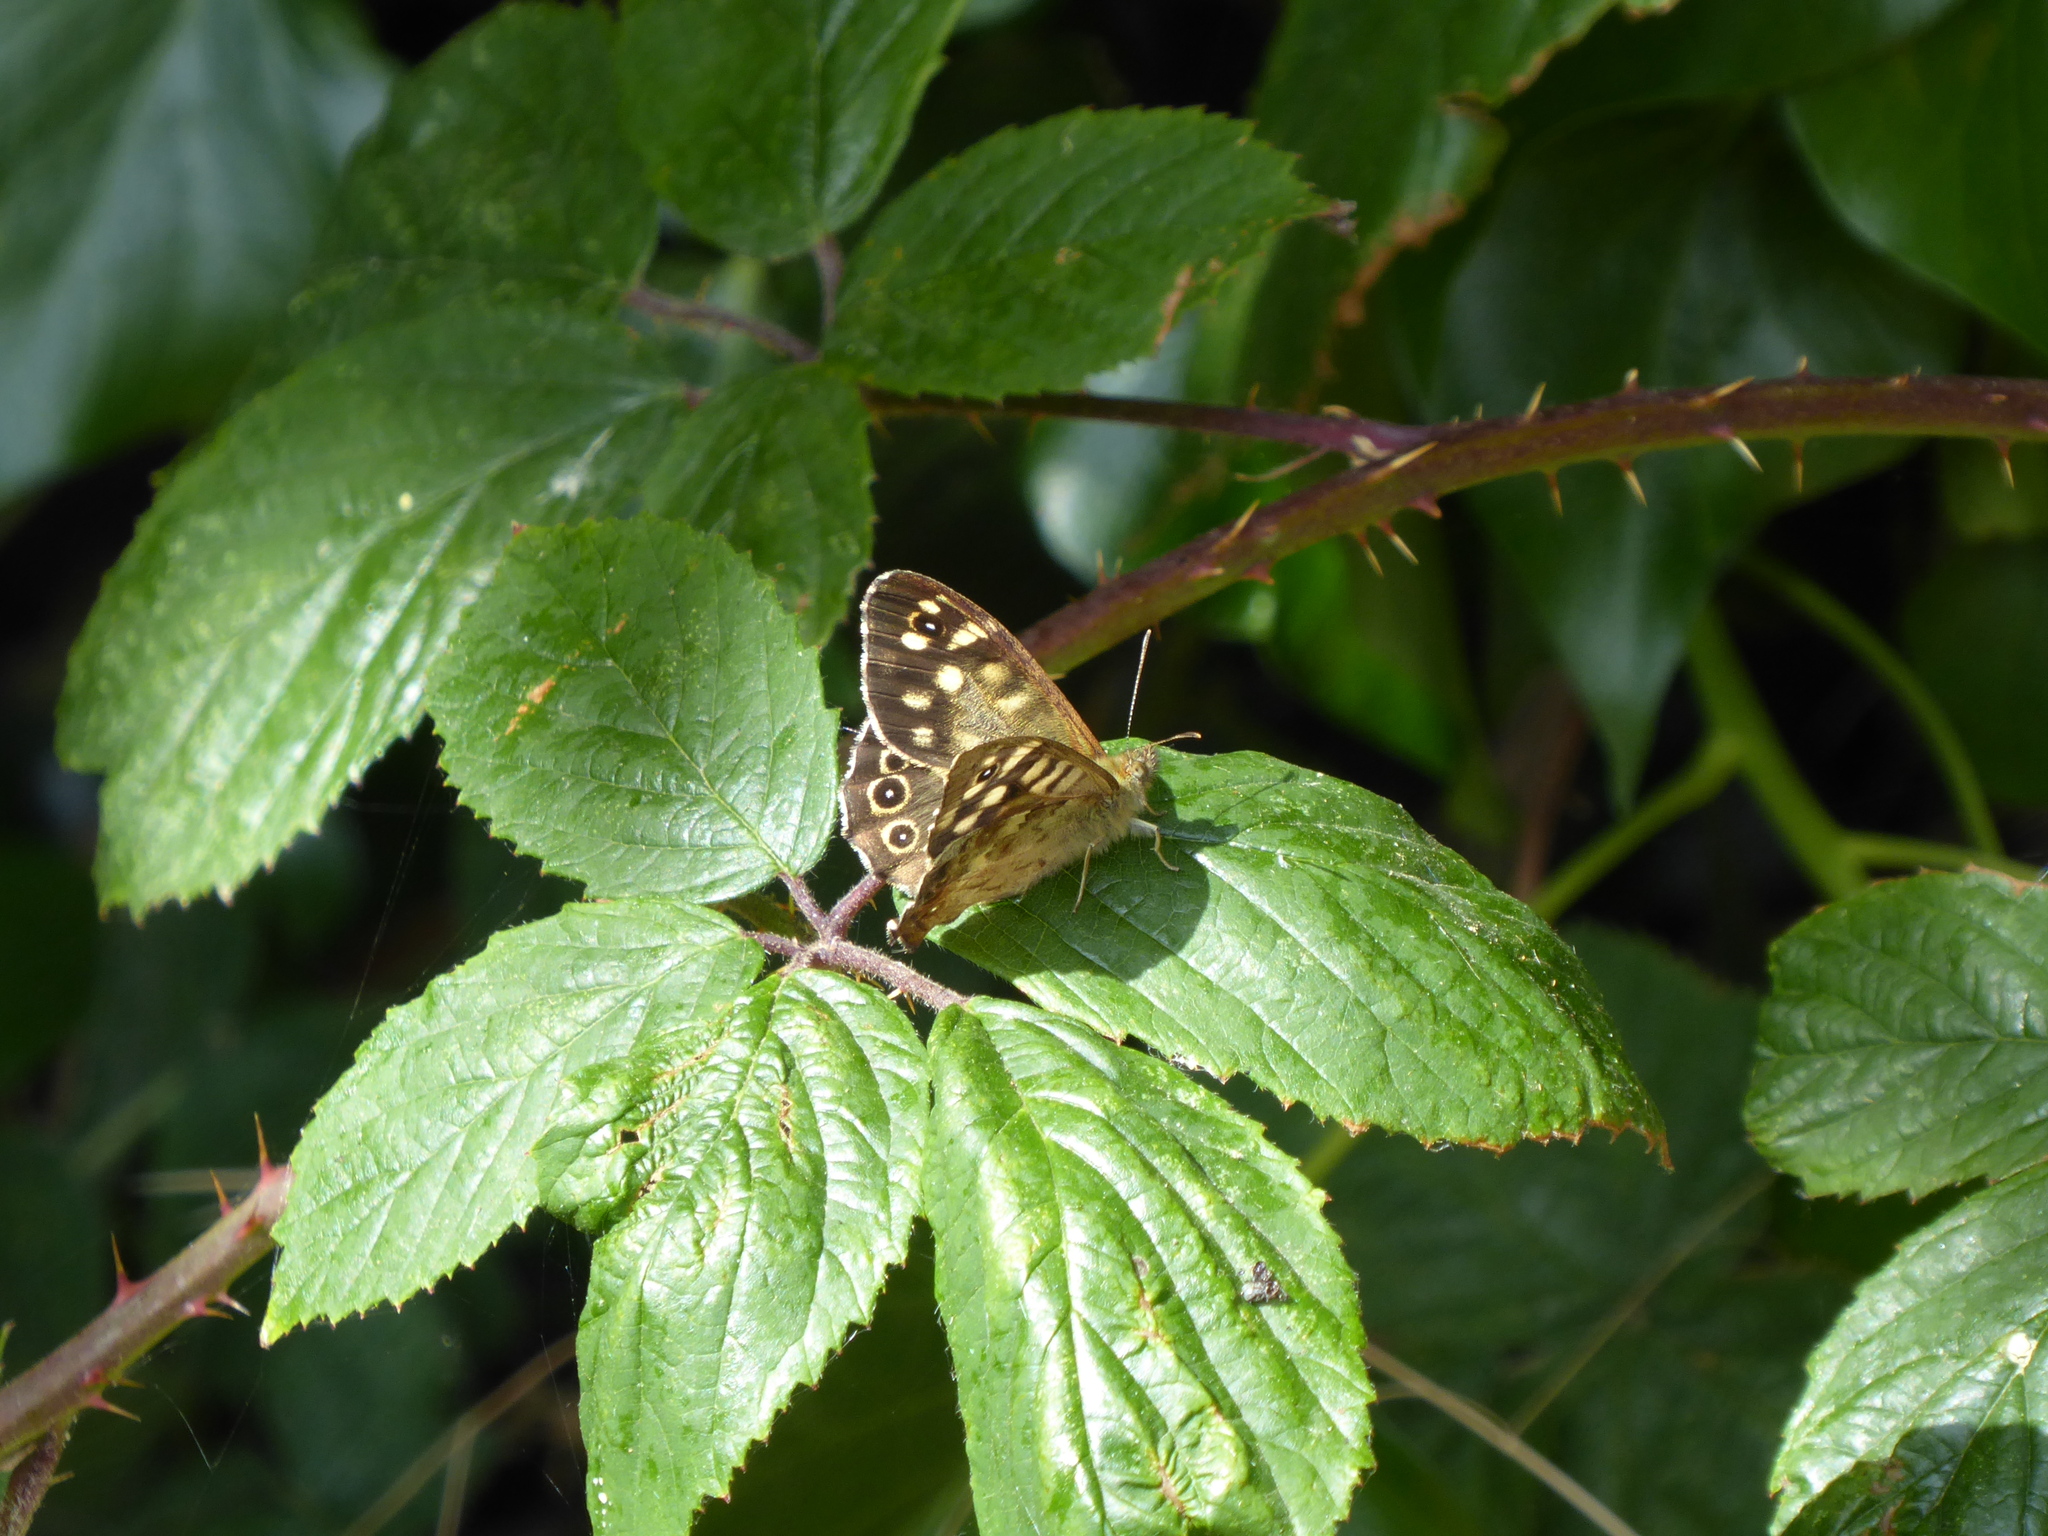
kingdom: Animalia
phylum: Arthropoda
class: Insecta
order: Lepidoptera
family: Nymphalidae
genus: Pararge
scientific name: Pararge aegeria
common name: Speckled wood
